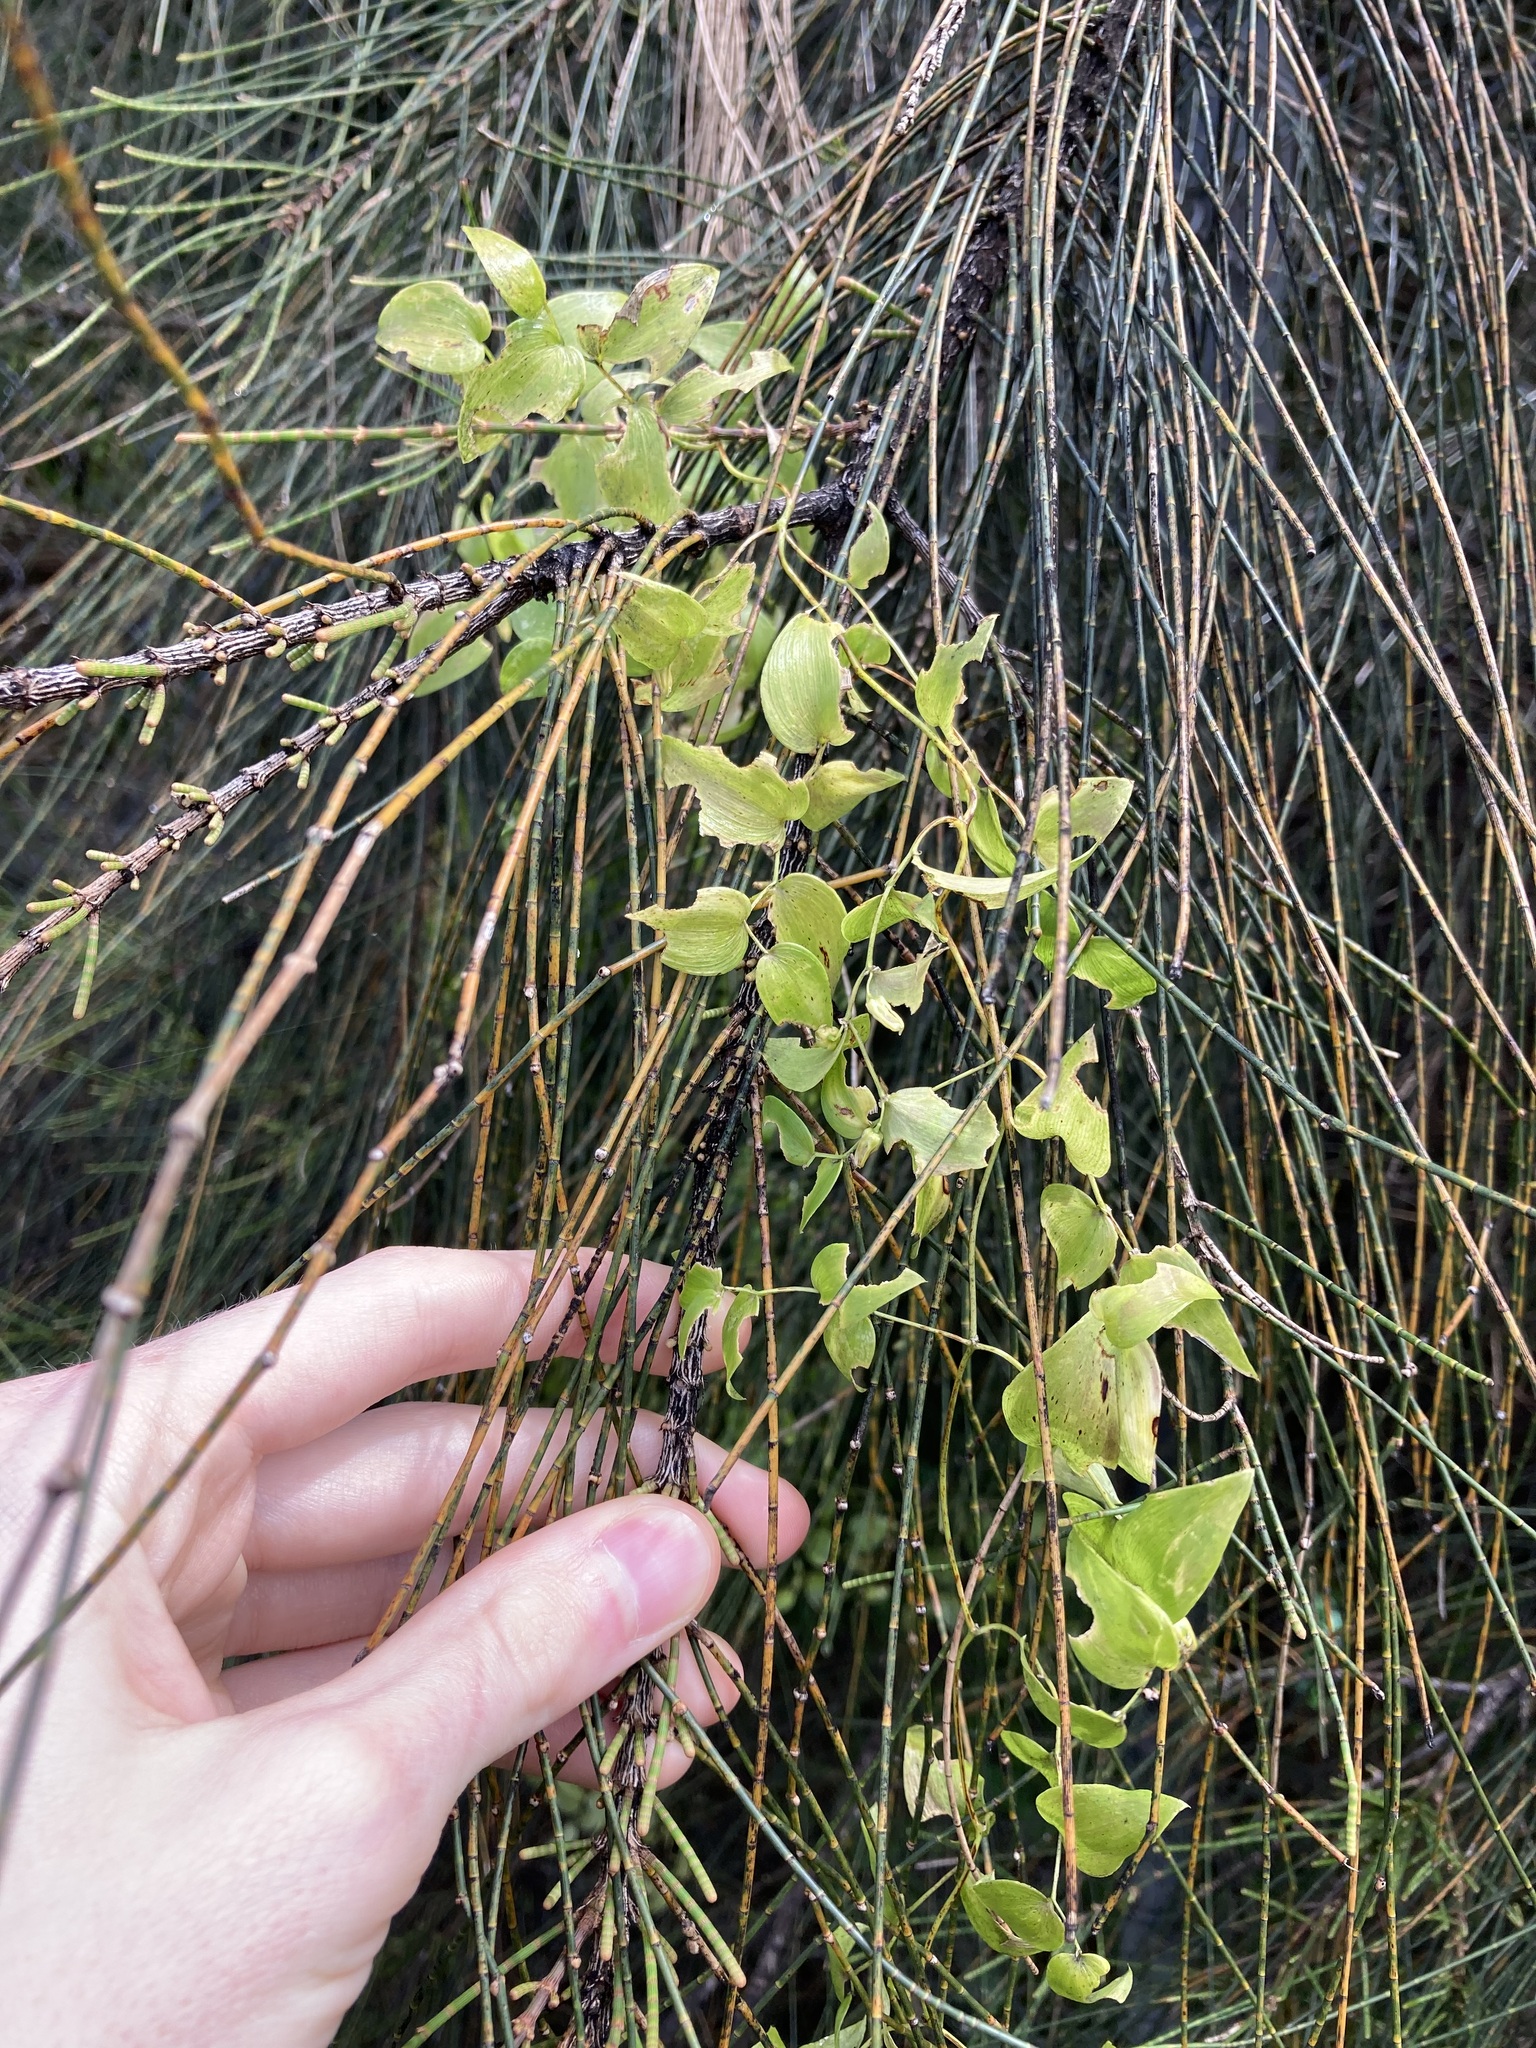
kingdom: Plantae
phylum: Tracheophyta
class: Liliopsida
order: Asparagales
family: Asparagaceae
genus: Asparagus
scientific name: Asparagus asparagoides
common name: African asparagus fern
